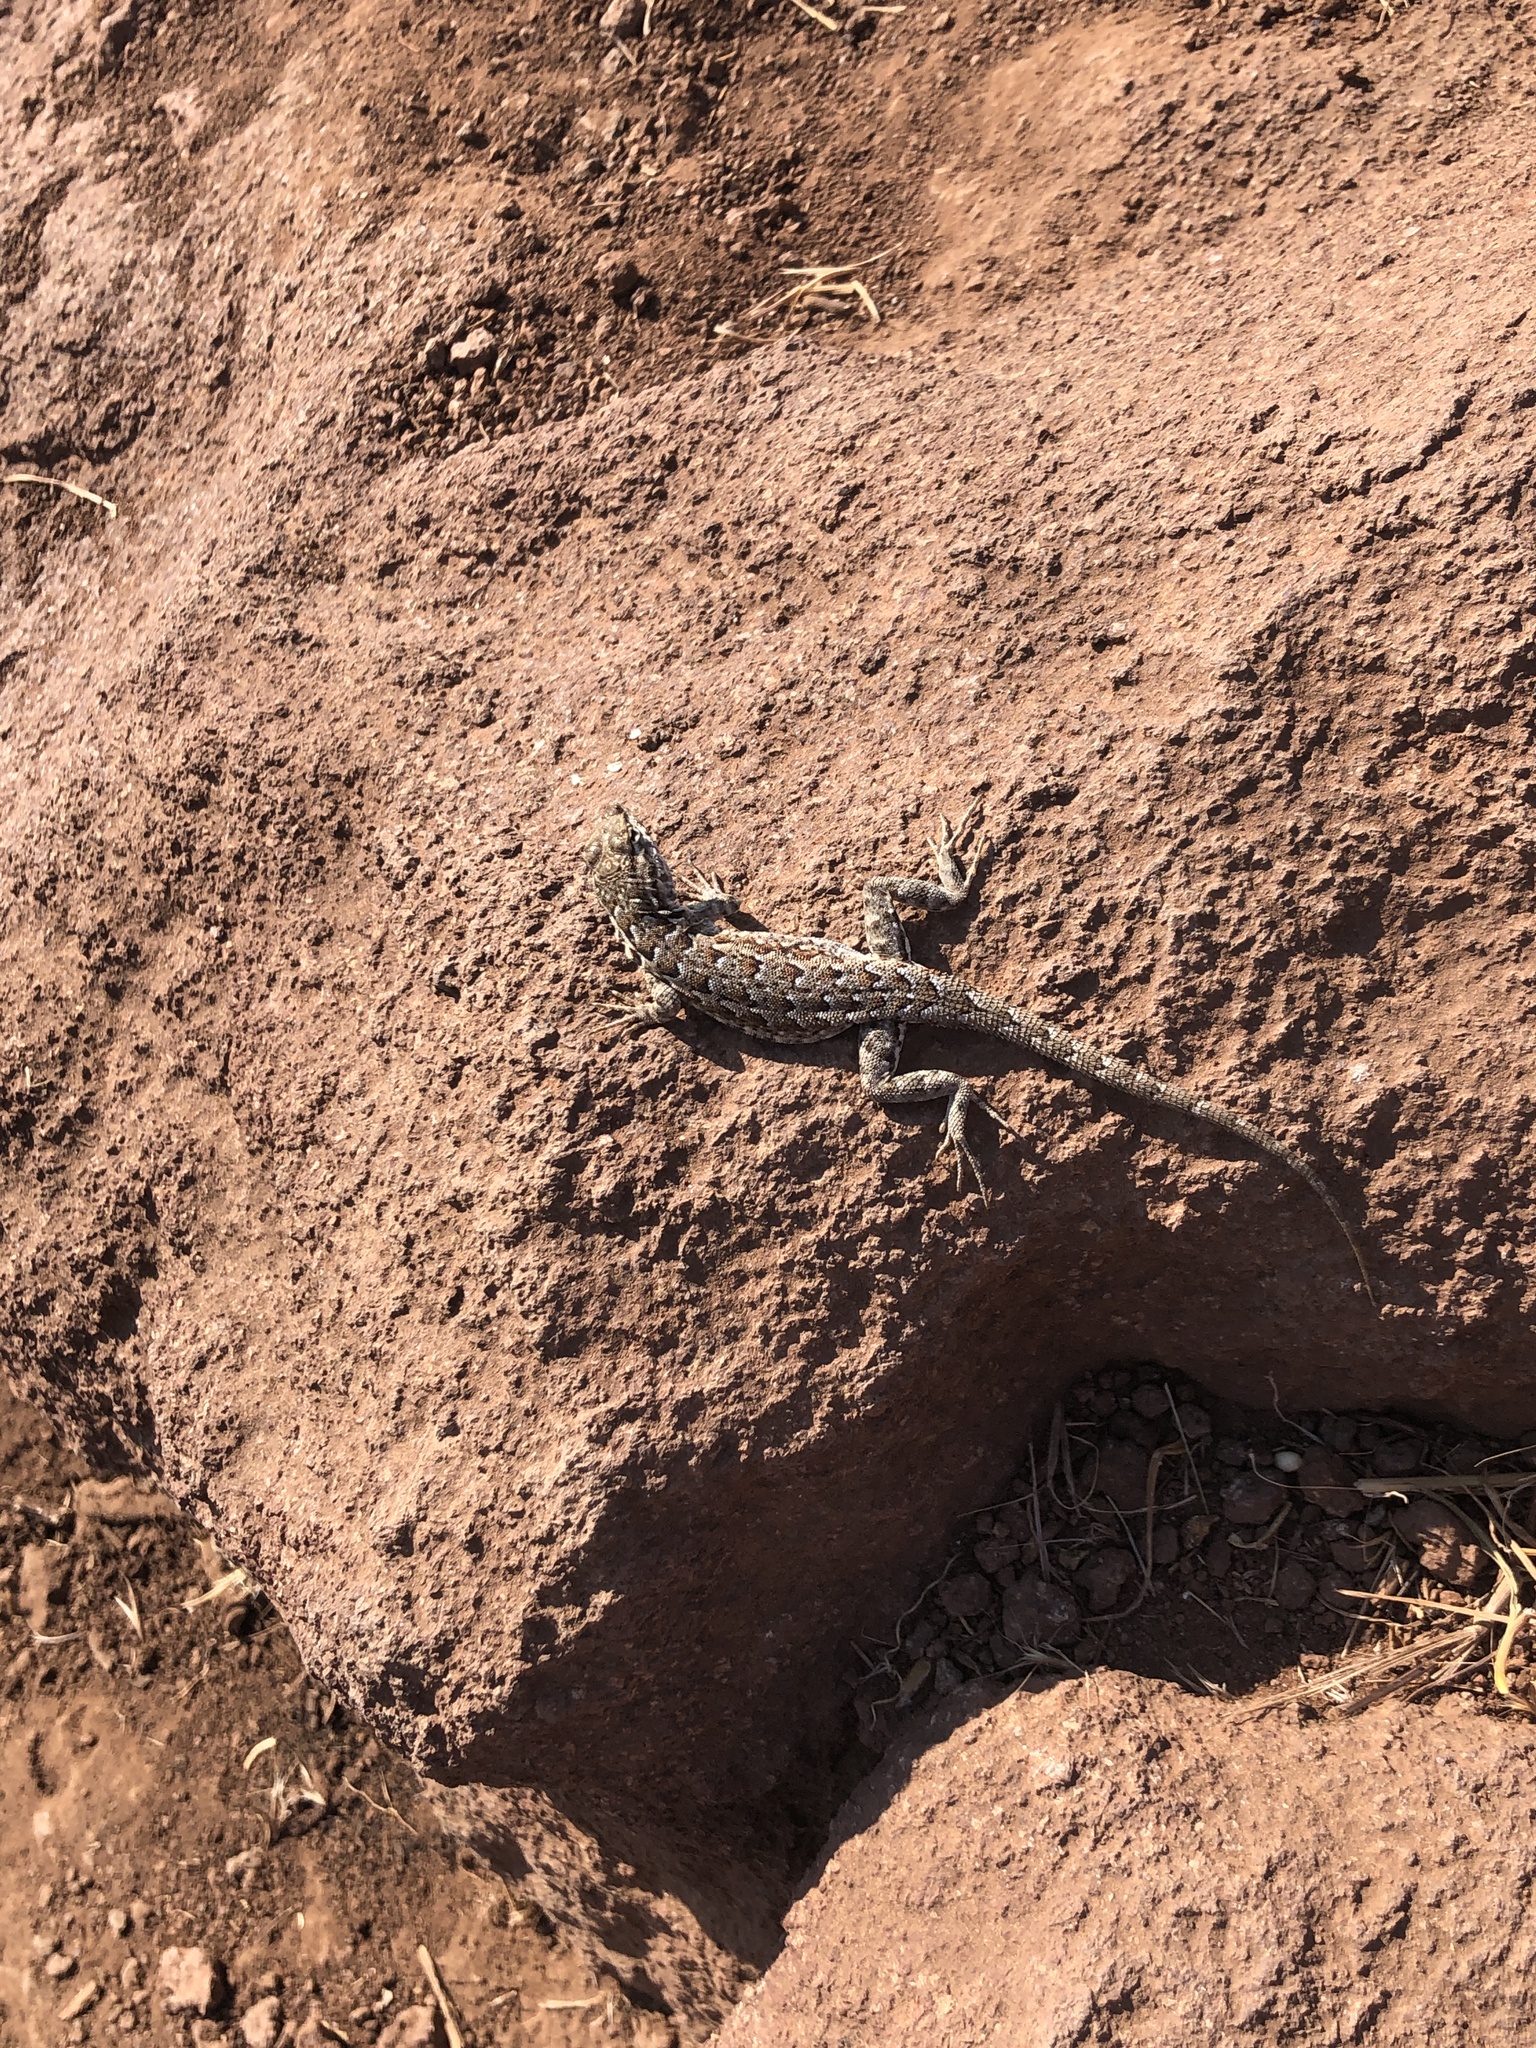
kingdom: Animalia
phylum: Chordata
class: Squamata
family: Phrynosomatidae
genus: Uta
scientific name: Uta stansburiana
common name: Side-blotched lizard
